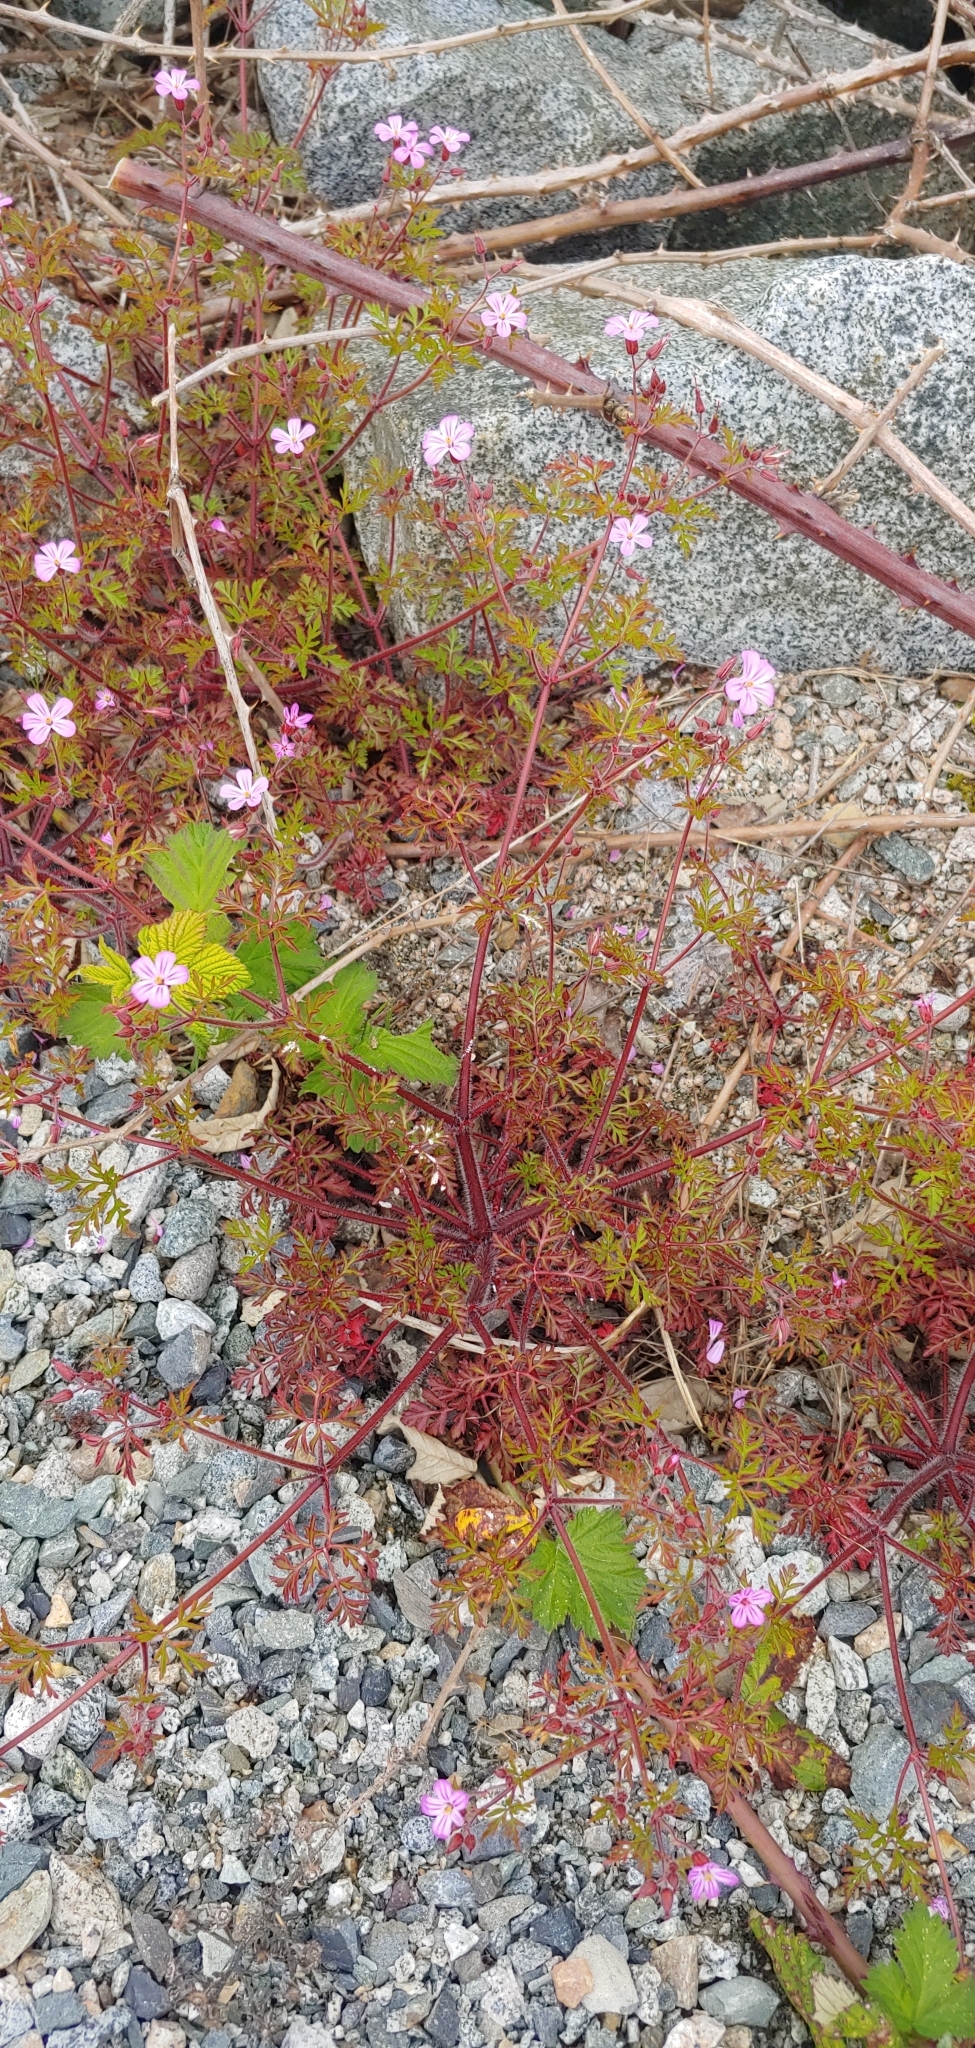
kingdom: Plantae
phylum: Tracheophyta
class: Magnoliopsida
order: Geraniales
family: Geraniaceae
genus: Geranium
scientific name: Geranium robertianum
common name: Herb-robert
